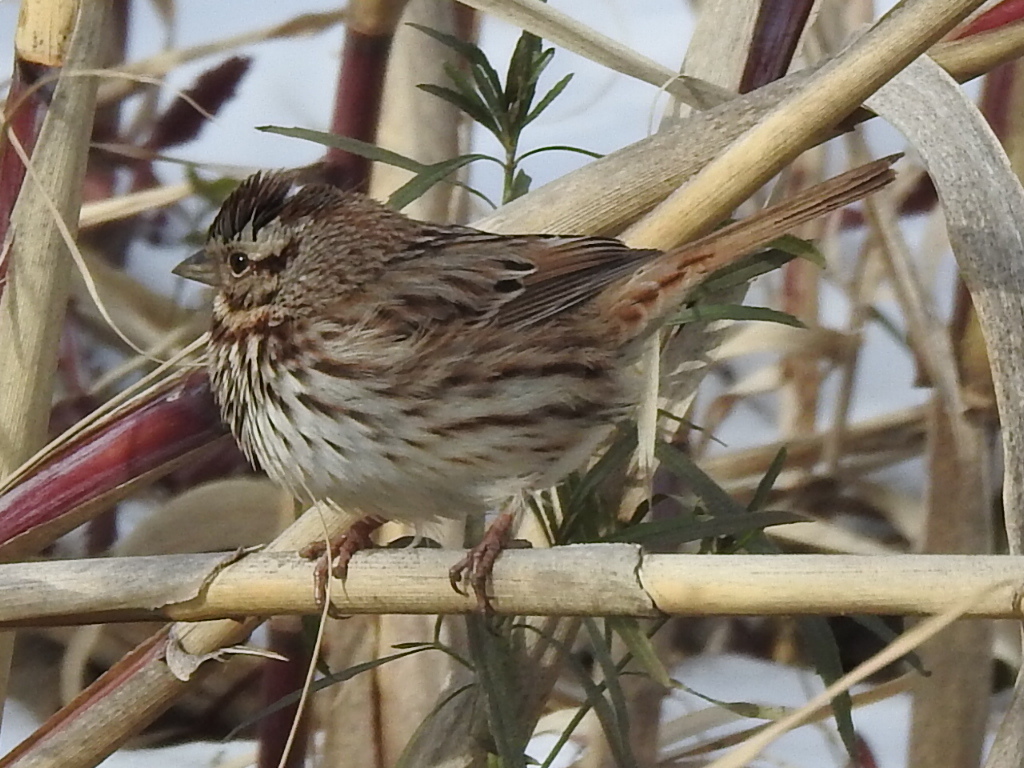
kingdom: Animalia
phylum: Chordata
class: Aves
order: Passeriformes
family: Passerellidae
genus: Melospiza
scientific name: Melospiza melodia
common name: Song sparrow
